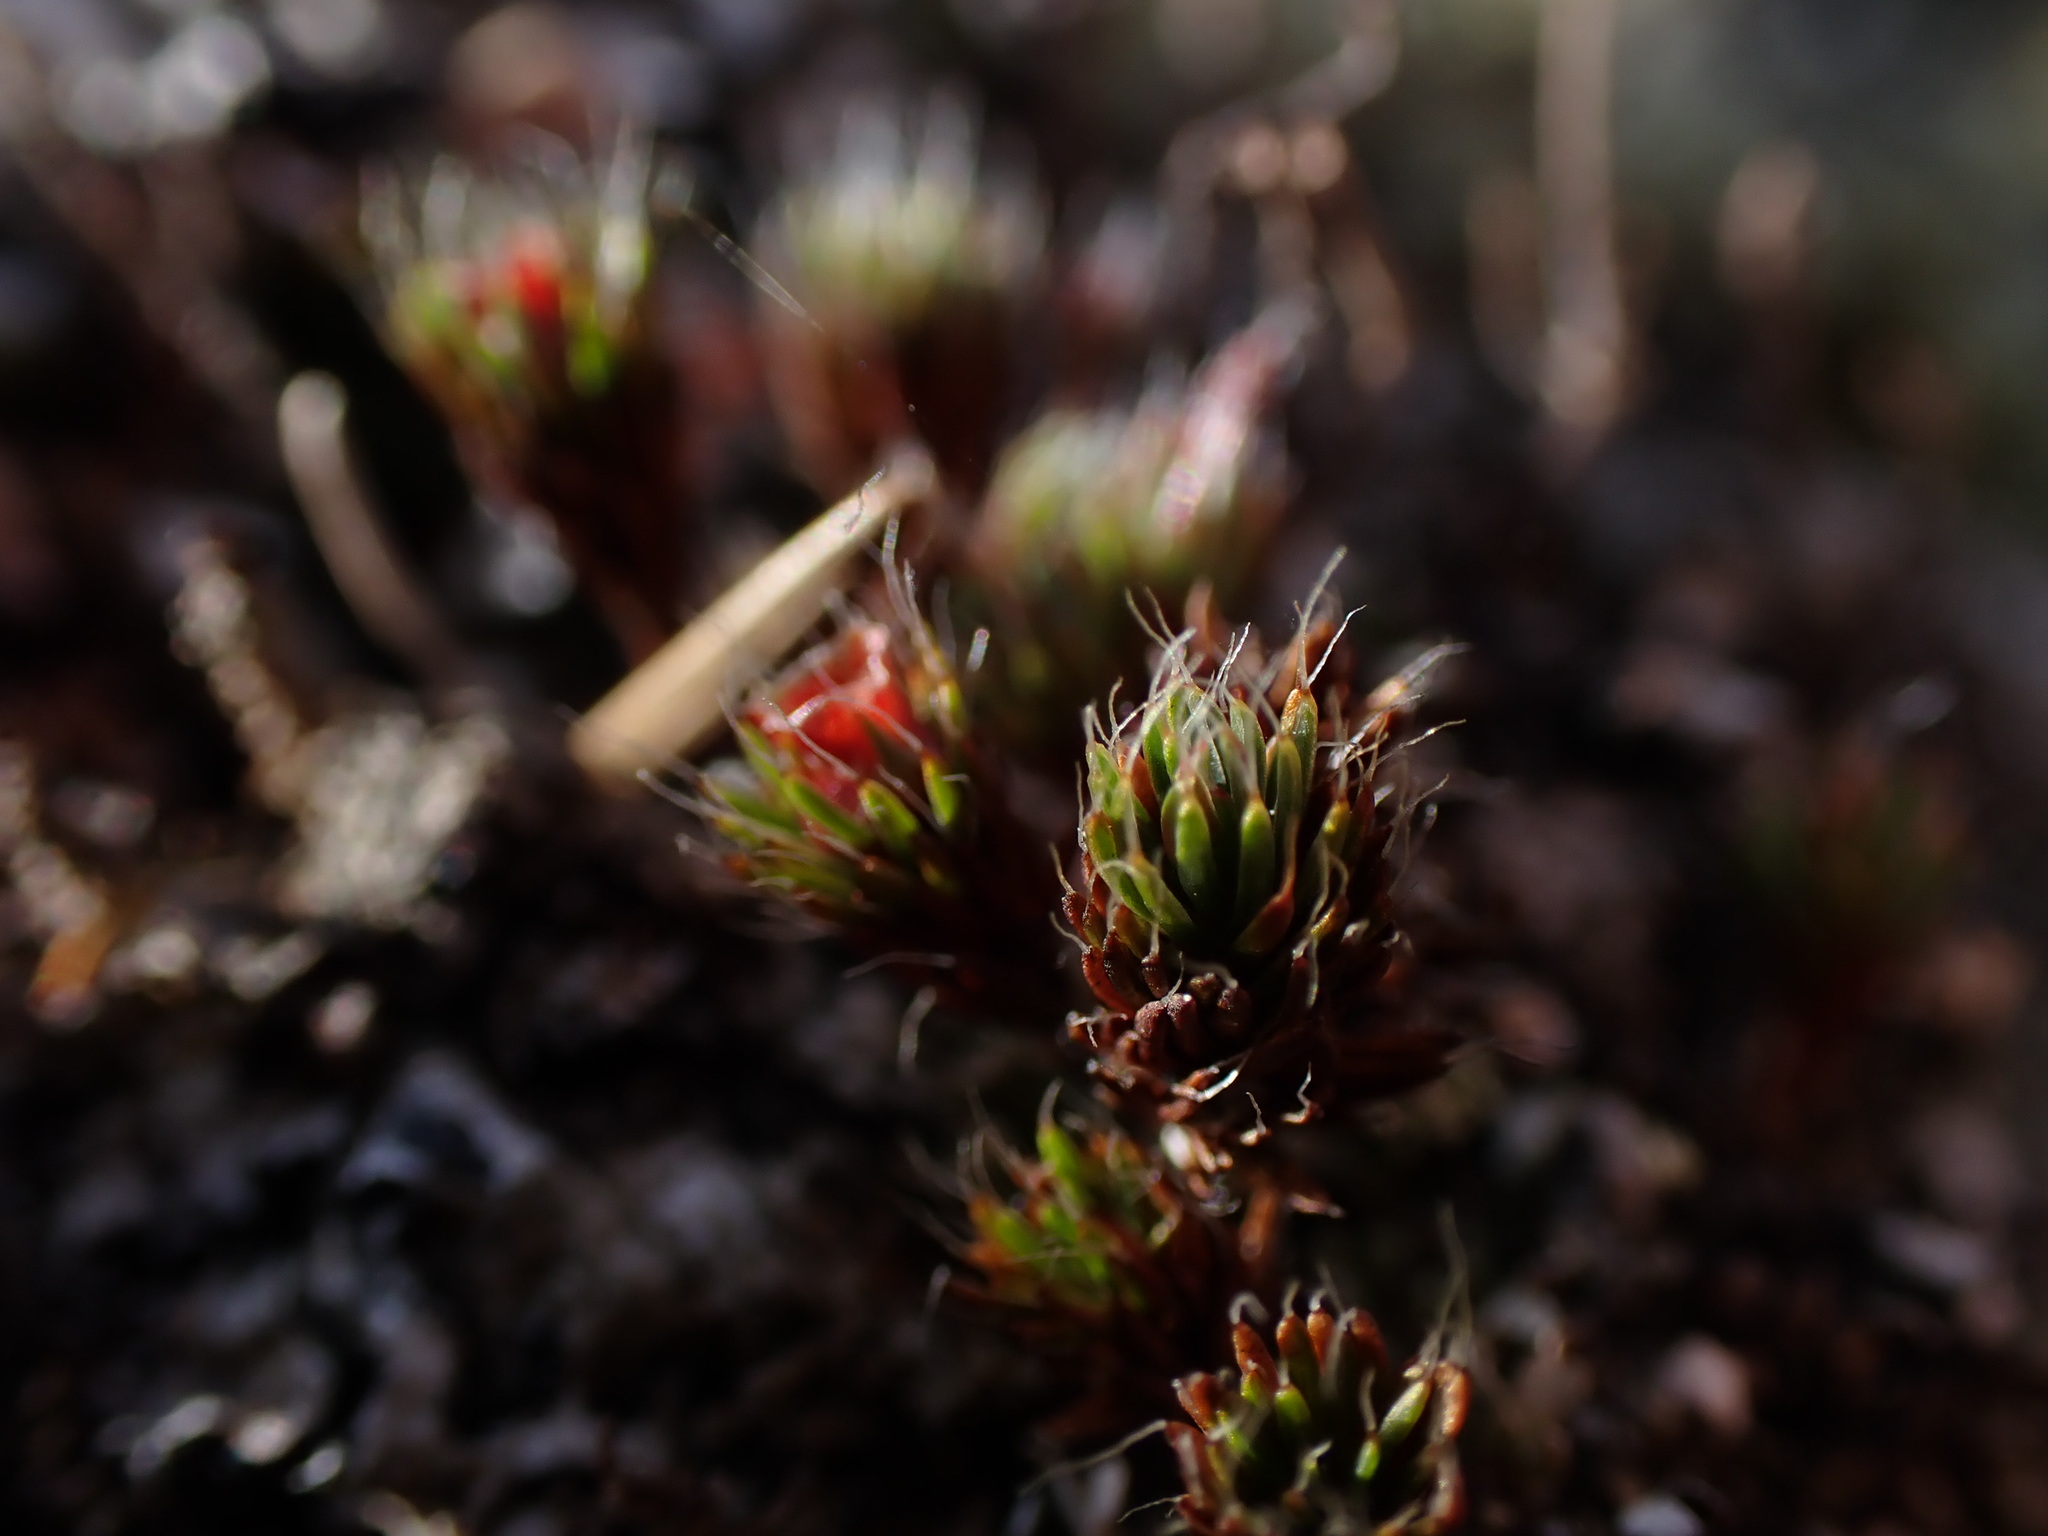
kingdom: Plantae
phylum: Bryophyta
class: Polytrichopsida
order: Polytrichales
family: Polytrichaceae
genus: Polytrichum
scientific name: Polytrichum piliferum
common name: Bristly haircap
